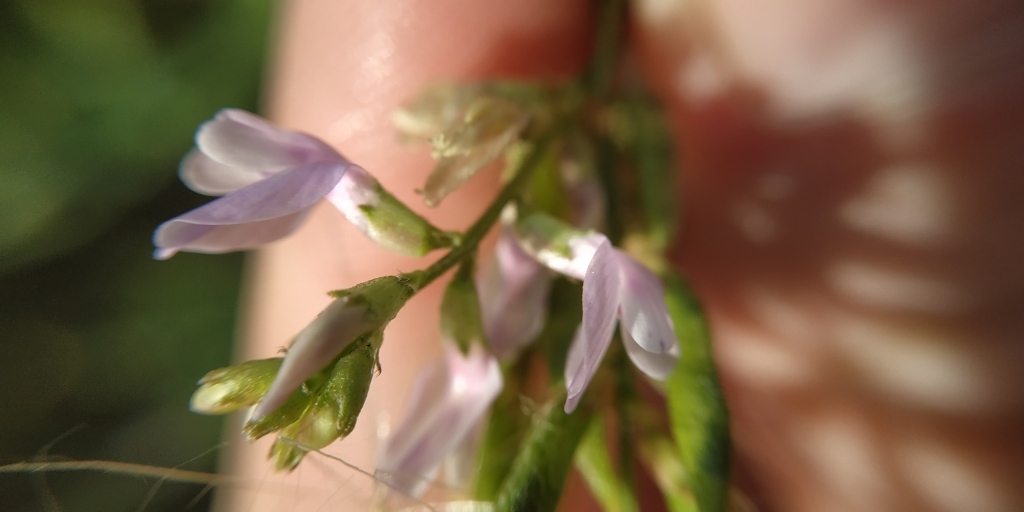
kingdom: Plantae
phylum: Tracheophyta
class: Magnoliopsida
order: Fabales
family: Fabaceae
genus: Astragalus
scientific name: Astragalus sulcatus
